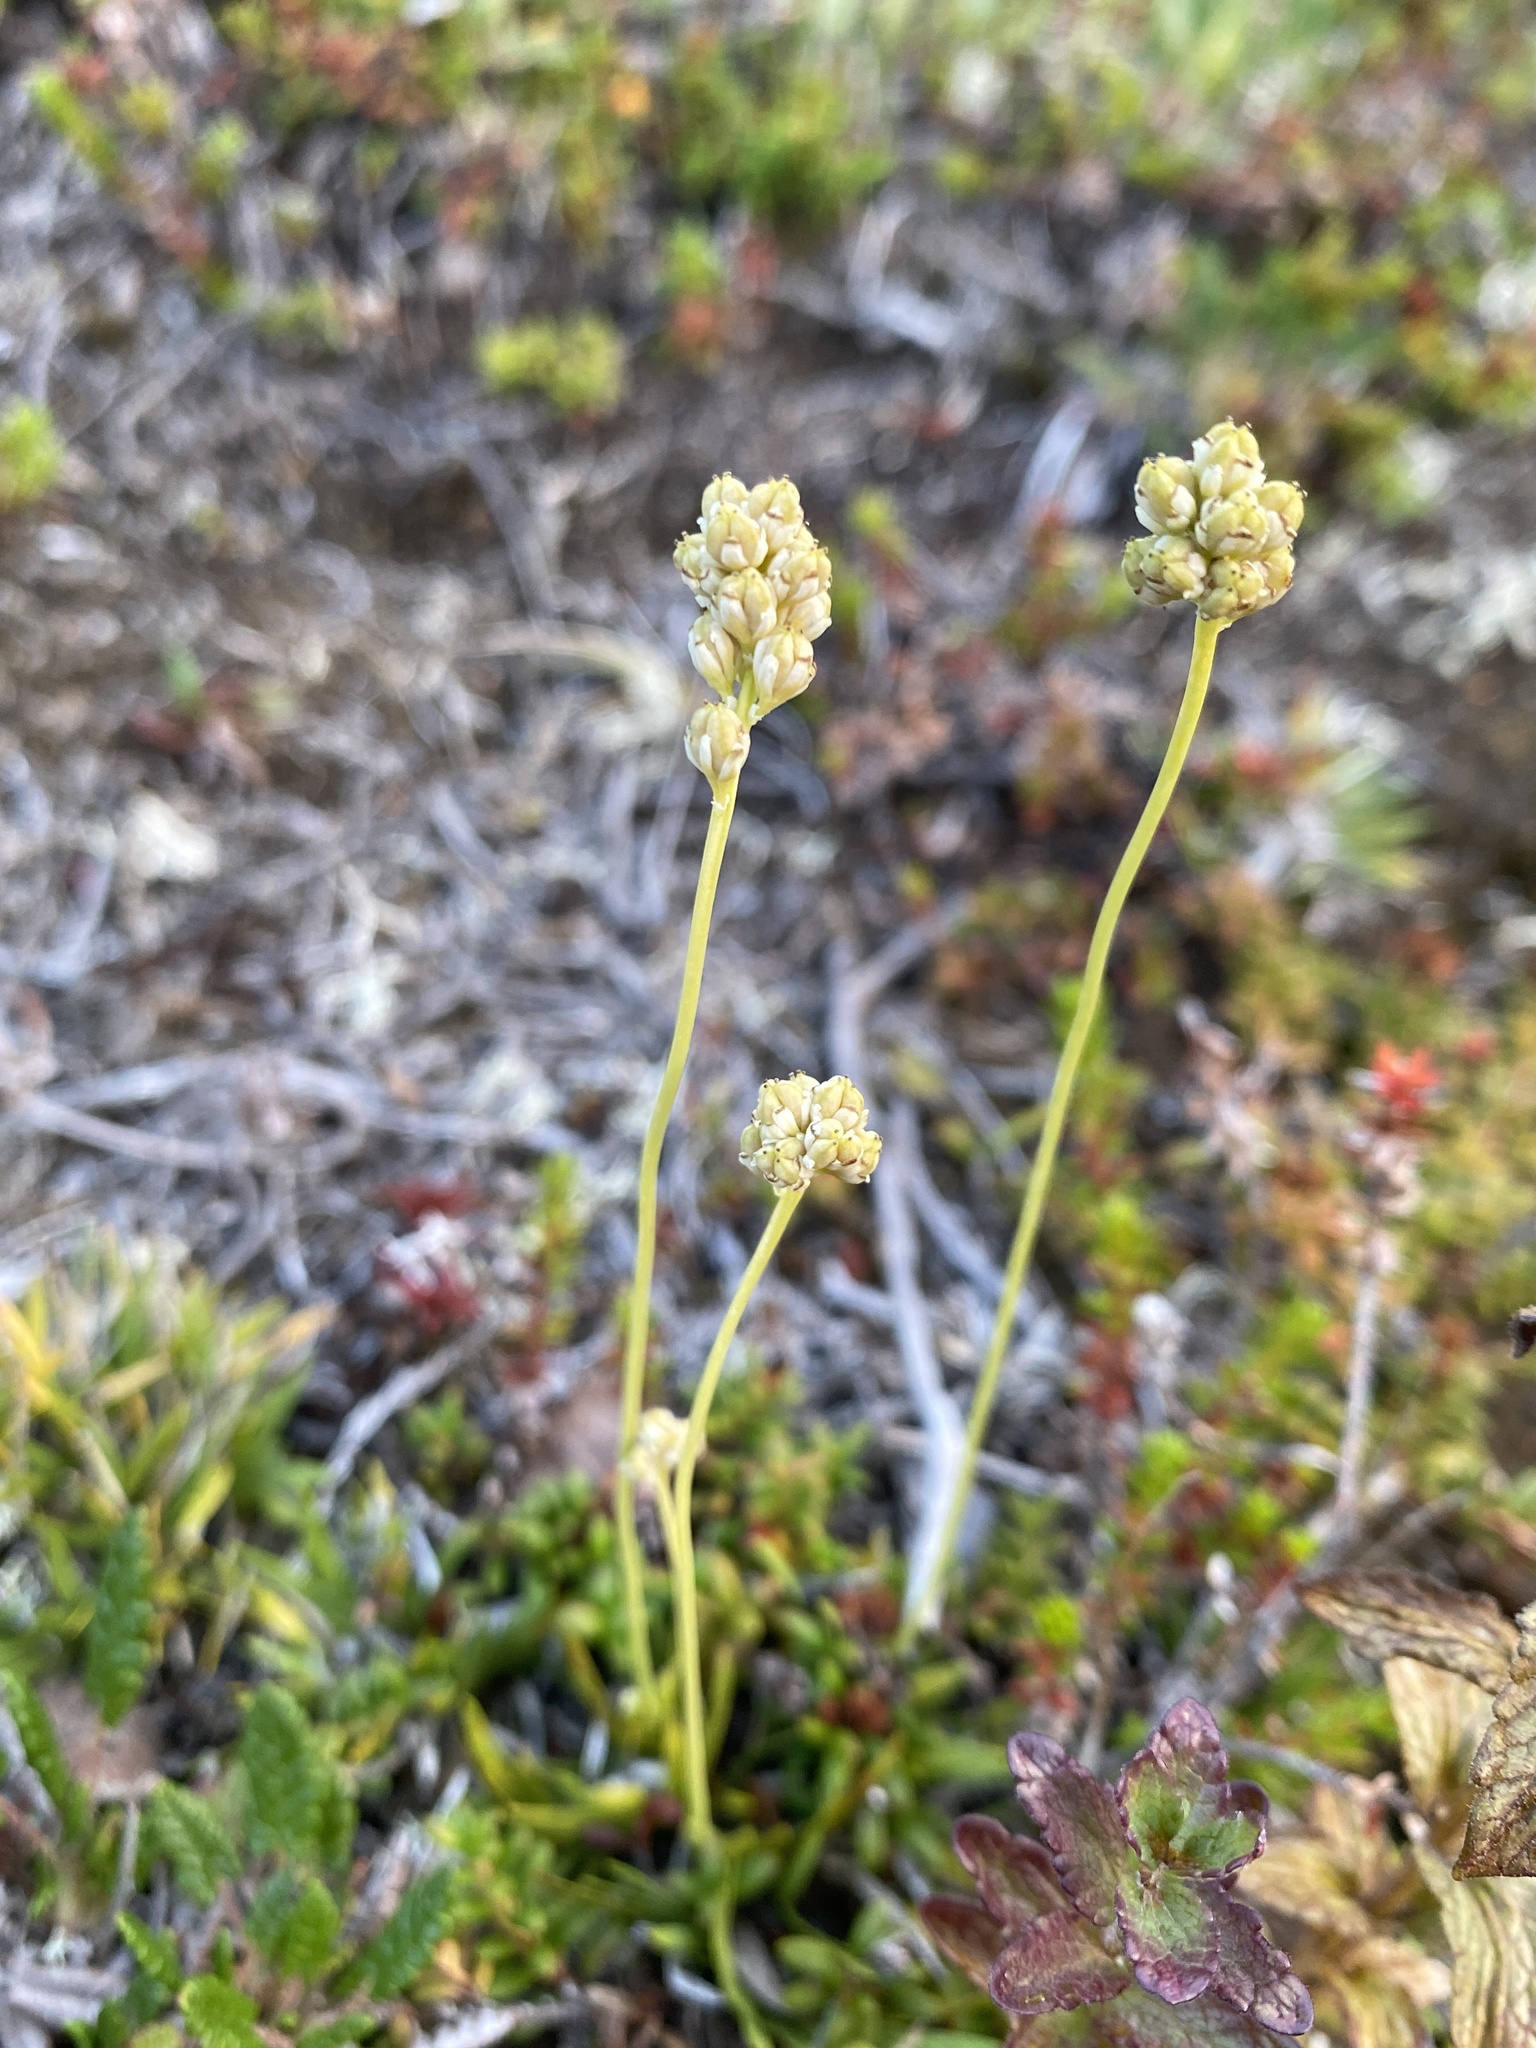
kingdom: Plantae
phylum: Tracheophyta
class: Liliopsida
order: Alismatales
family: Tofieldiaceae
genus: Tofieldia
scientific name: Tofieldia pusilla
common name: Scottish false asphodel
